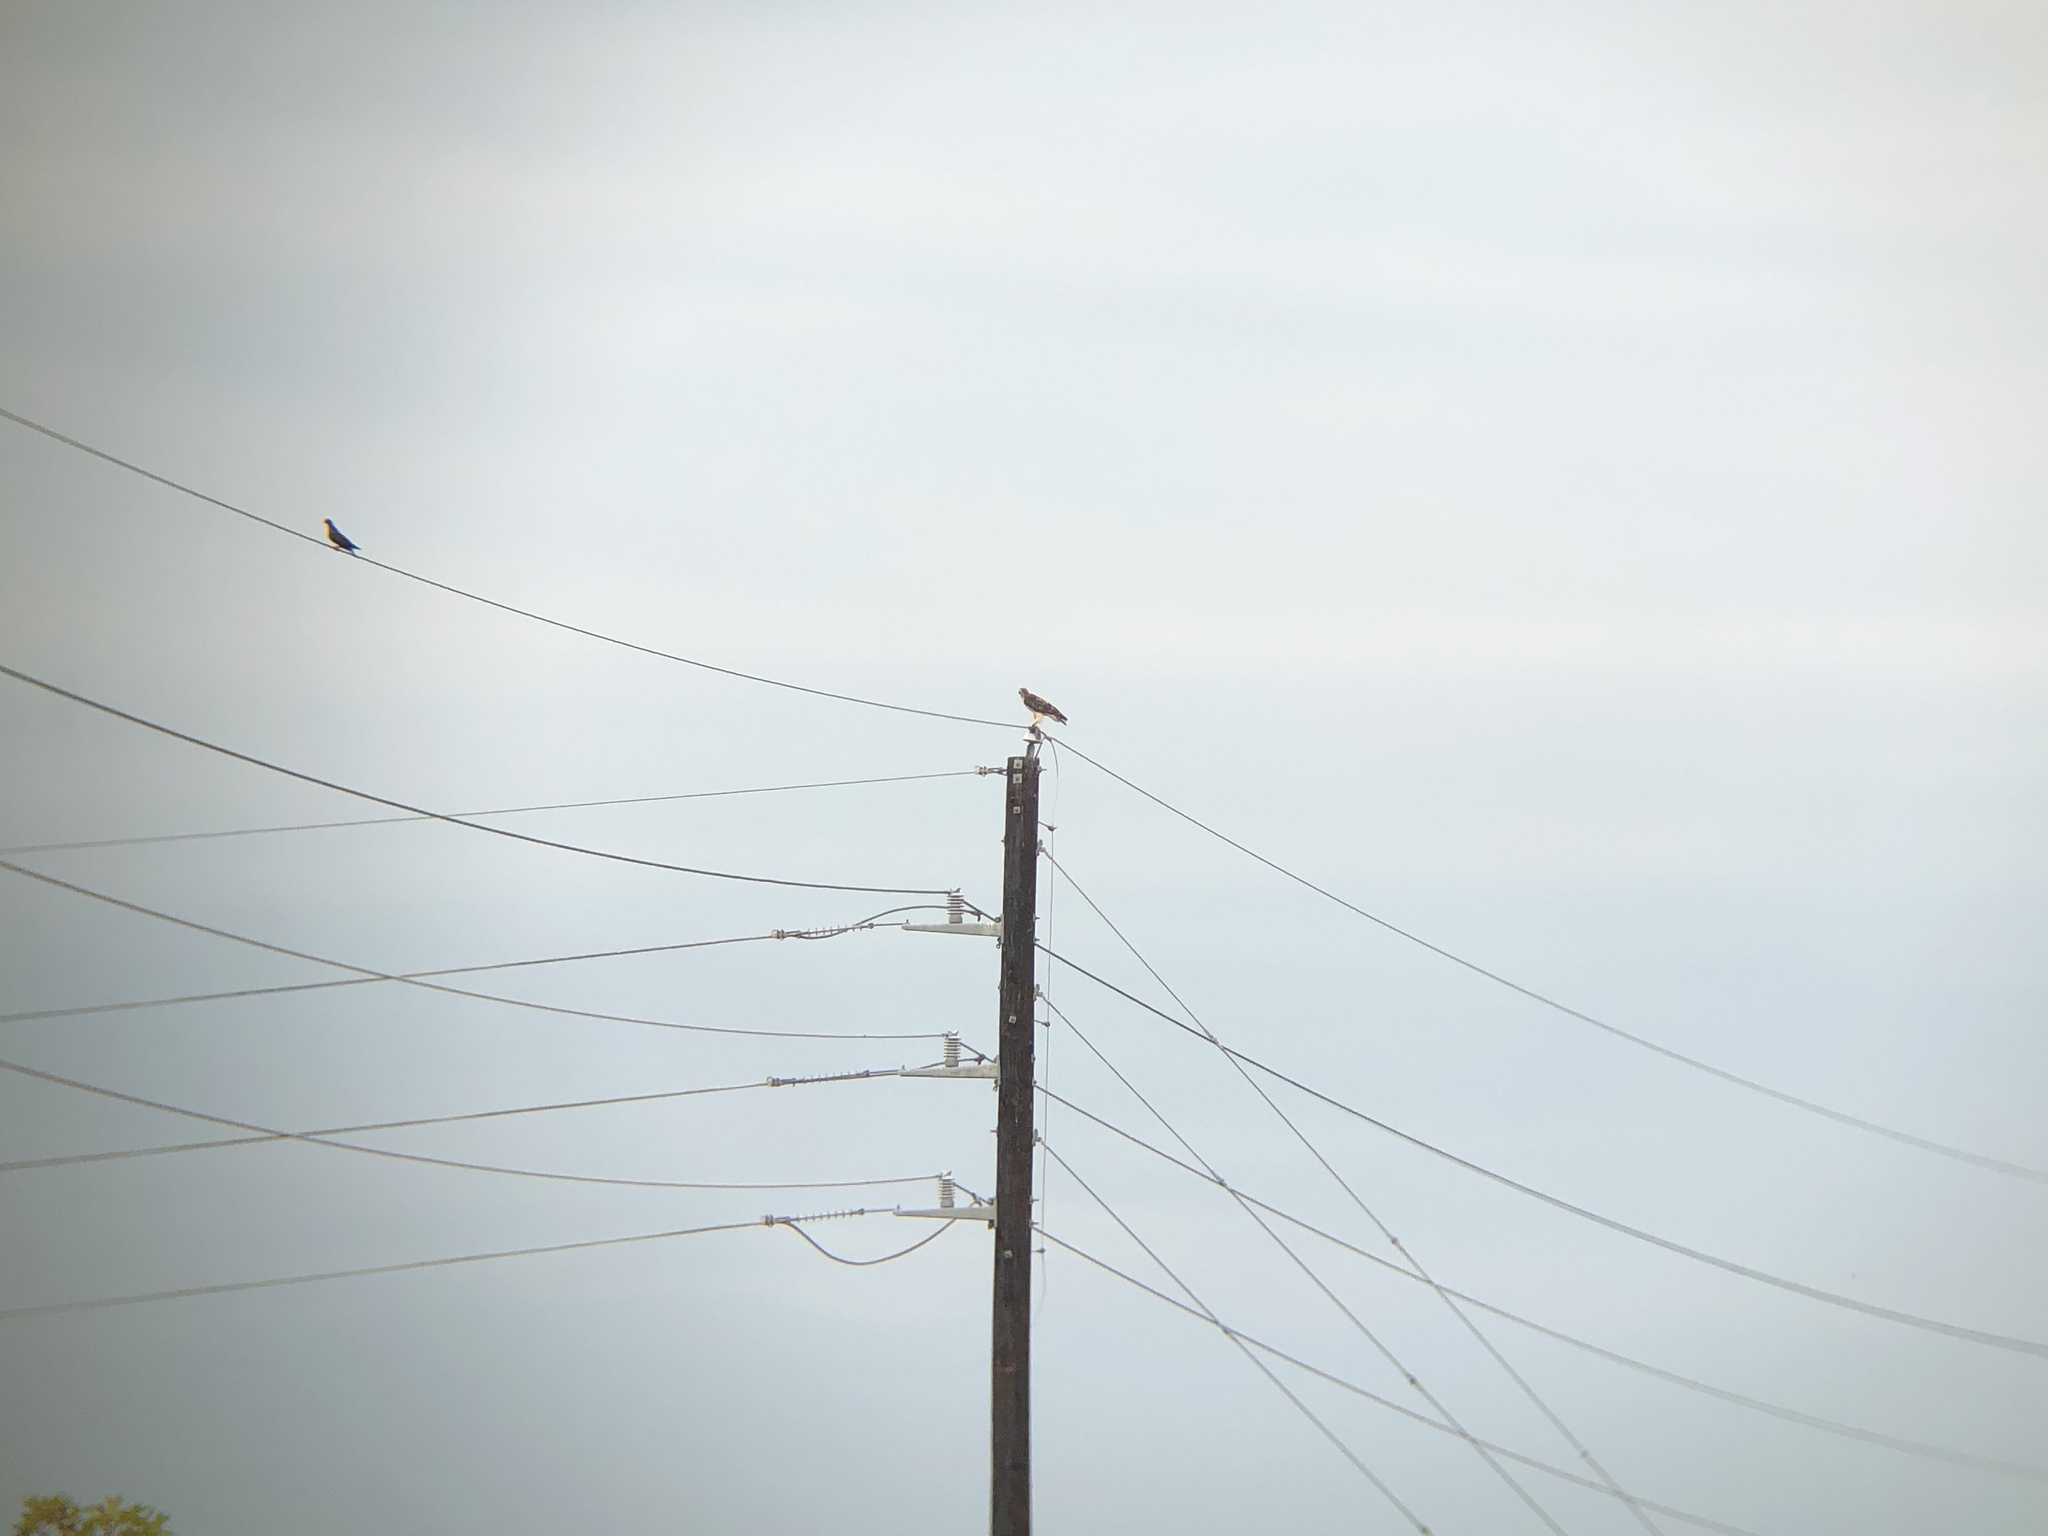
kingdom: Animalia
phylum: Chordata
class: Aves
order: Accipitriformes
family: Accipitridae
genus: Buteo
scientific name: Buteo jamaicensis
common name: Red-tailed hawk
